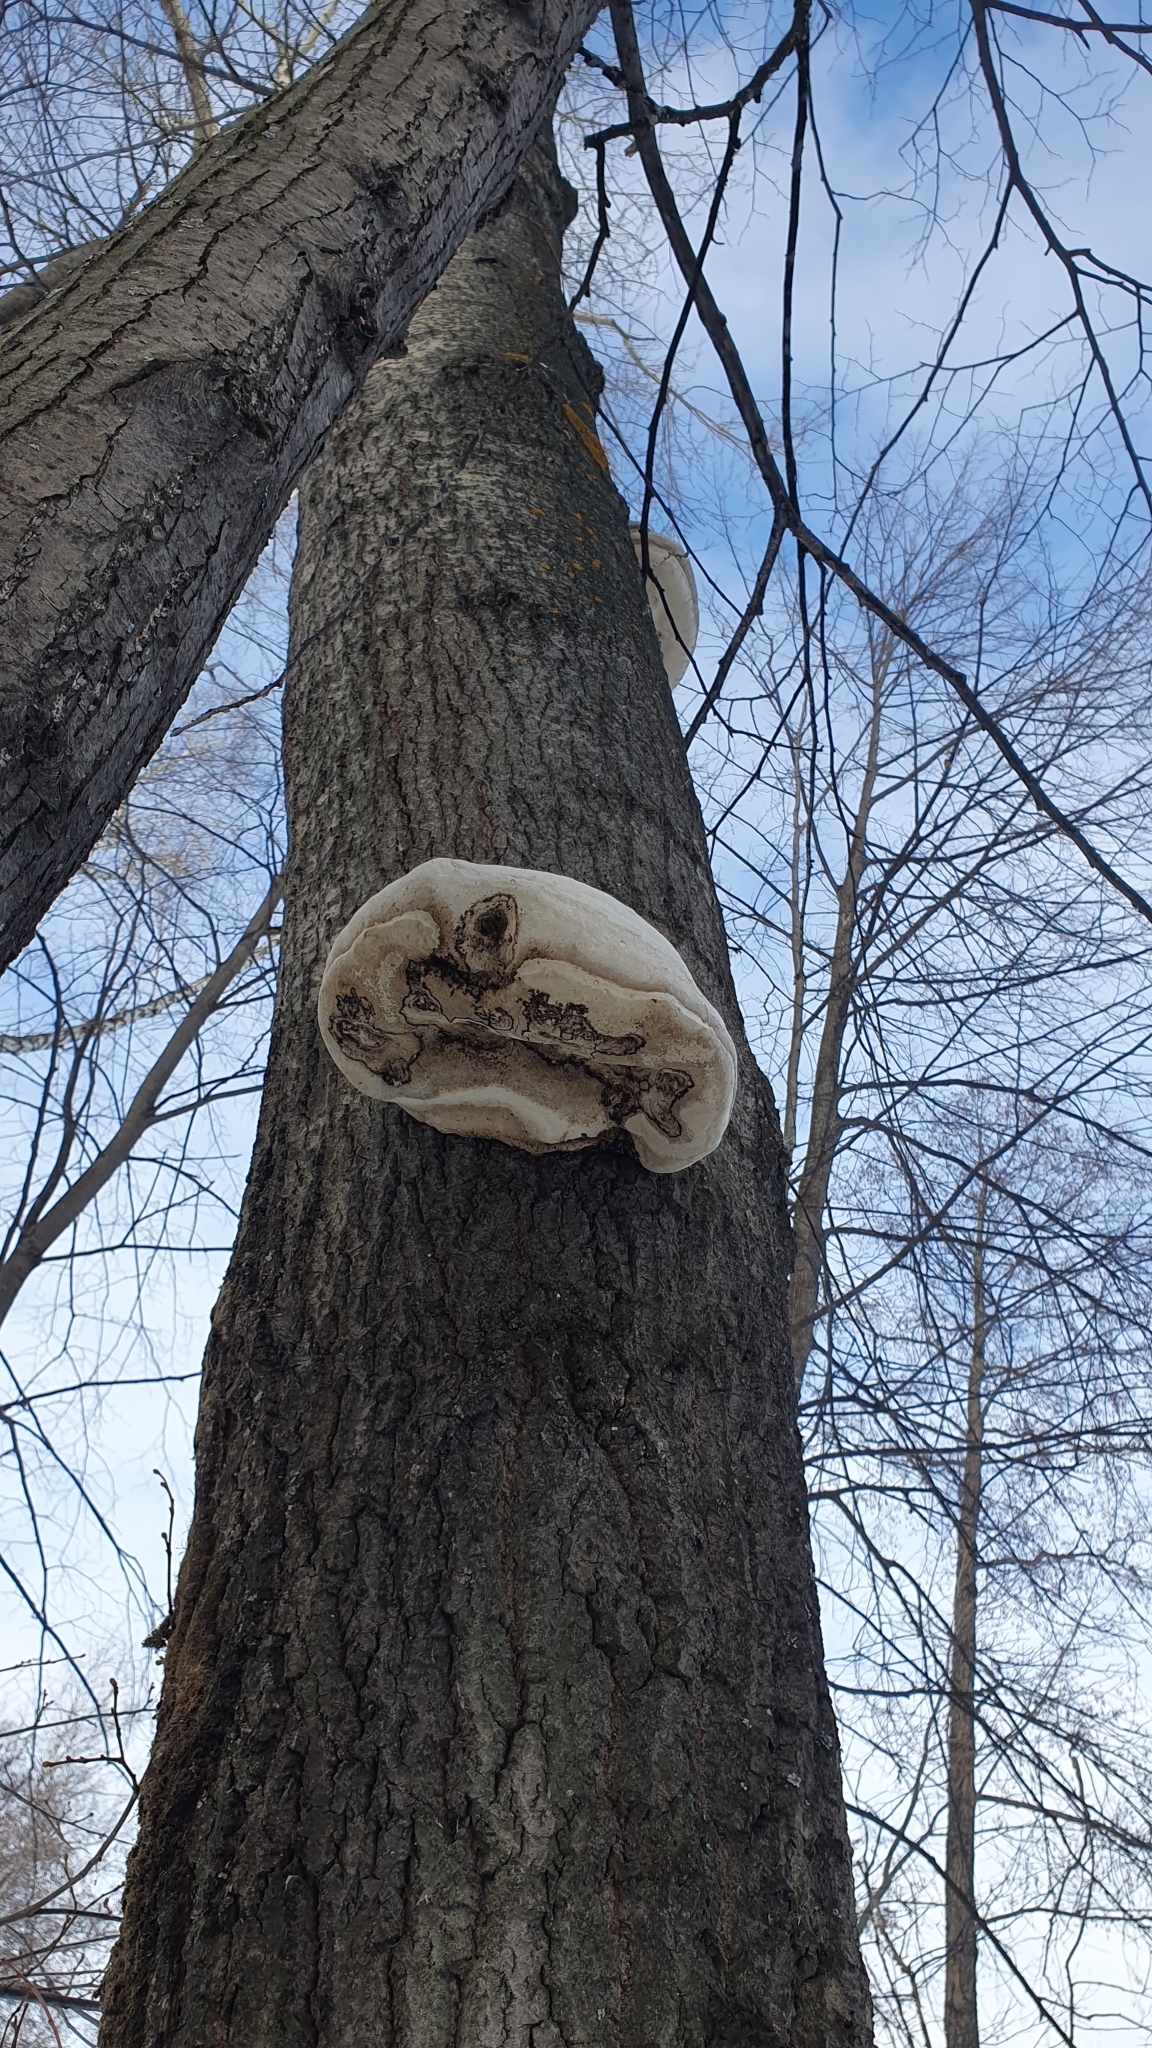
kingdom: Fungi
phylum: Basidiomycota
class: Agaricomycetes
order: Polyporales
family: Polyporaceae
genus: Fomes
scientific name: Fomes fomentarius
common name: Hoof fungus
